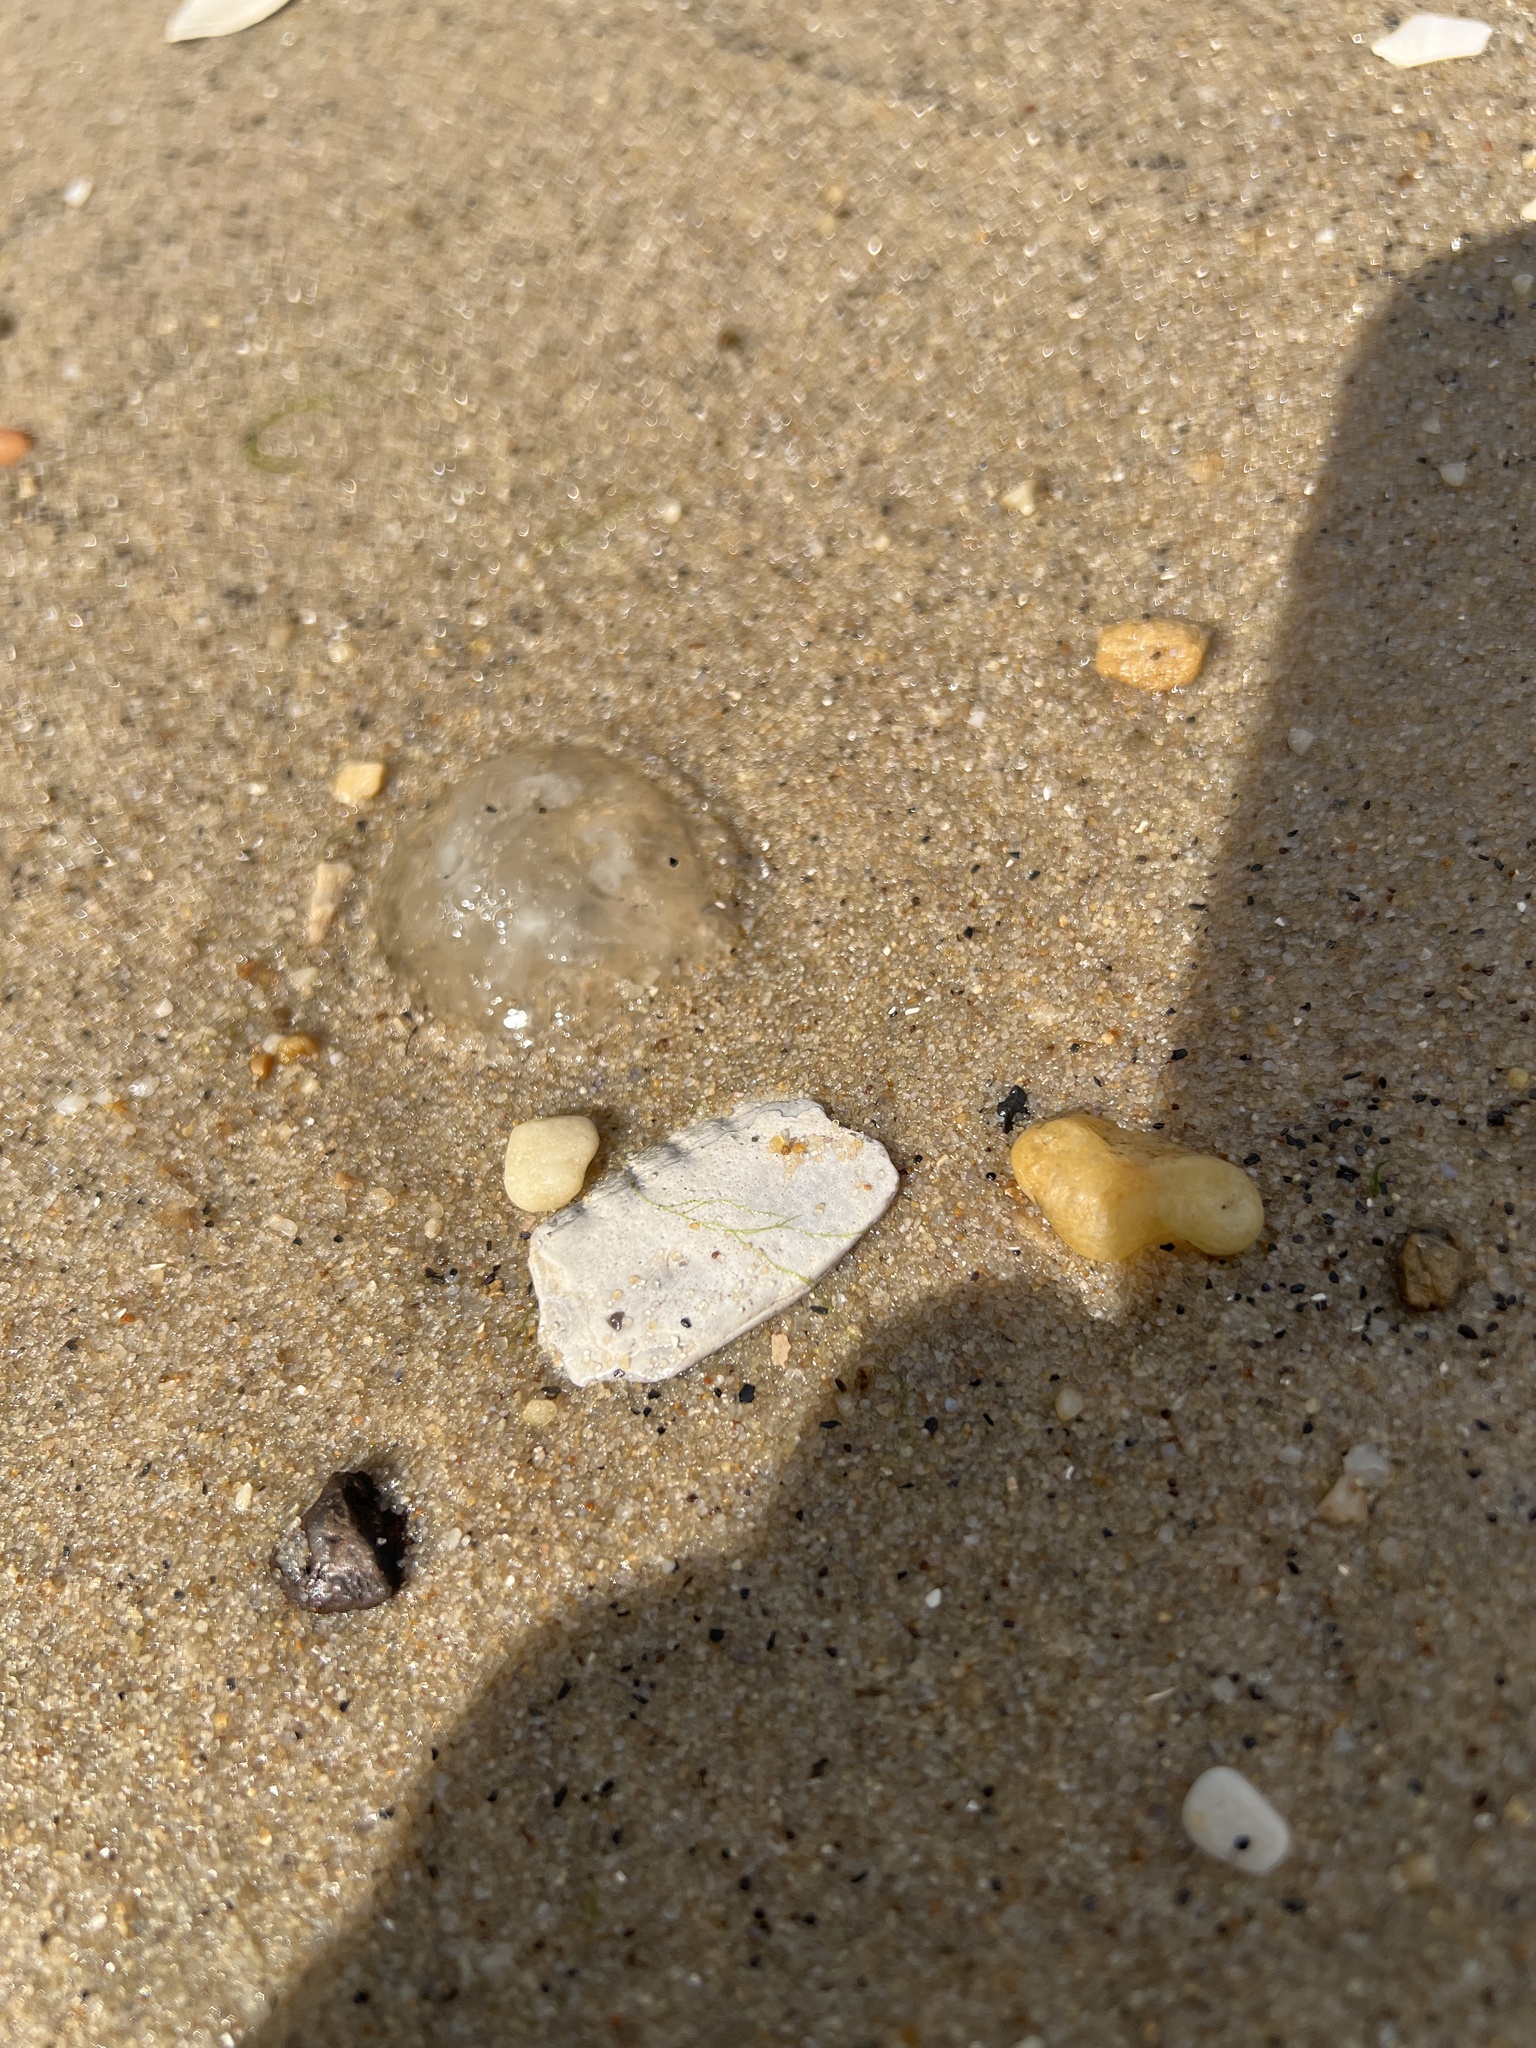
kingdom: Animalia
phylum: Cnidaria
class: Scyphozoa
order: Semaeostomeae
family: Pelagiidae
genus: Chrysaora
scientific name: Chrysaora chesapeakei
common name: Bay nettle
